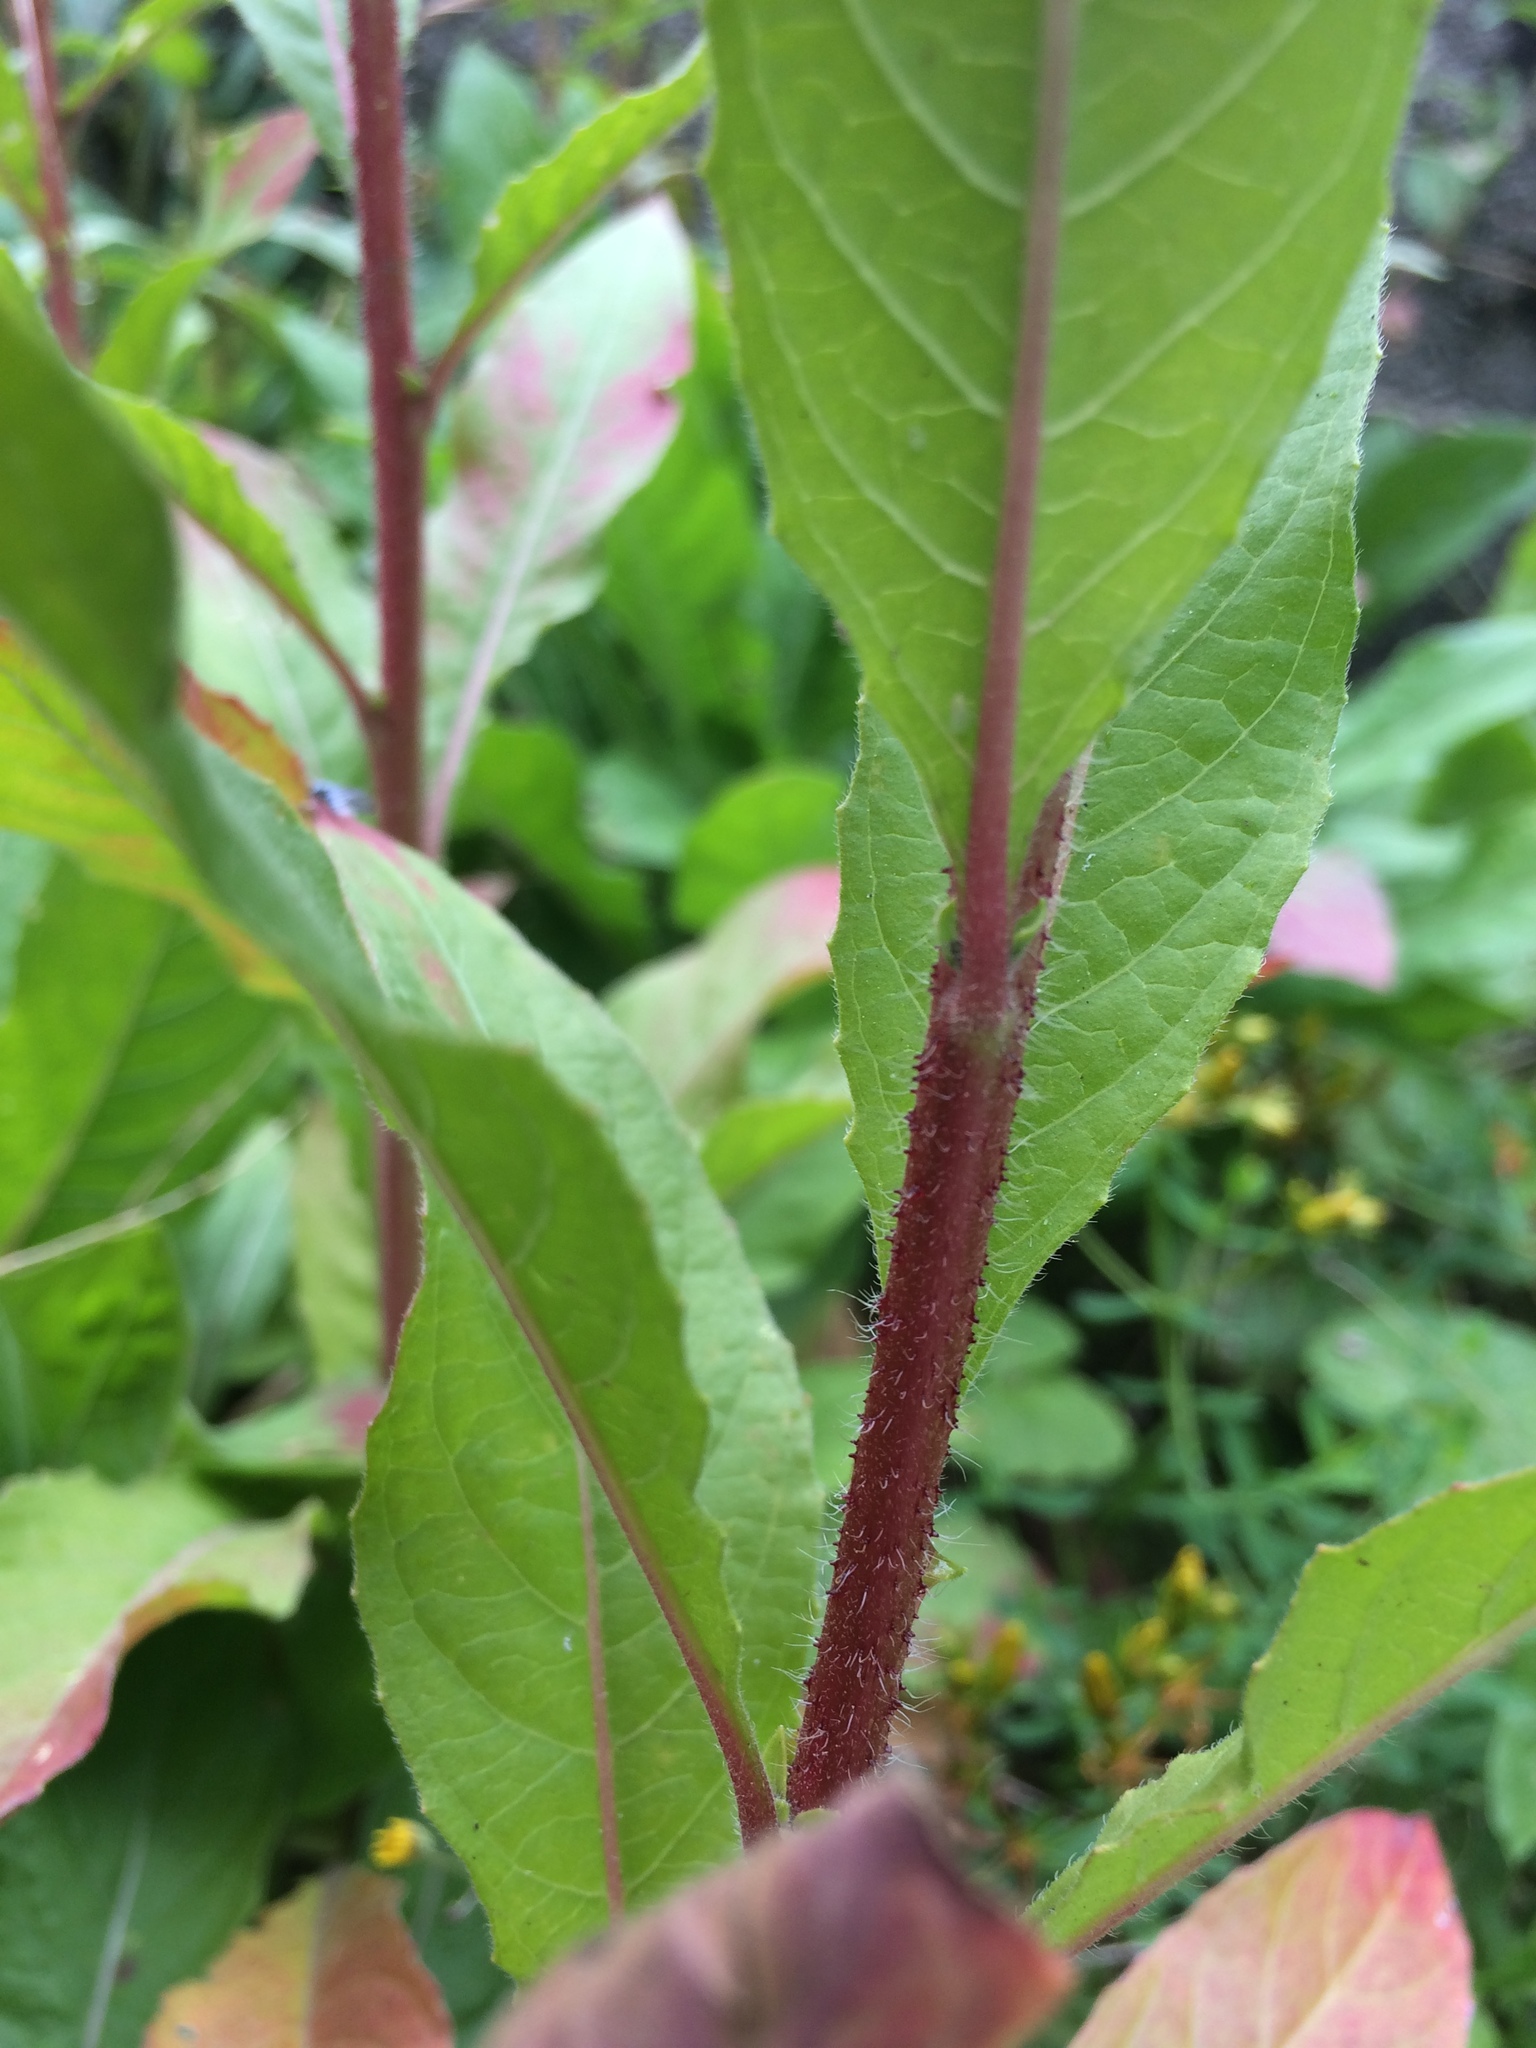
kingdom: Plantae
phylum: Tracheophyta
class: Magnoliopsida
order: Myrtales
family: Onagraceae
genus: Oenothera
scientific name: Oenothera glazioviana
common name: Large-flowered evening-primrose
